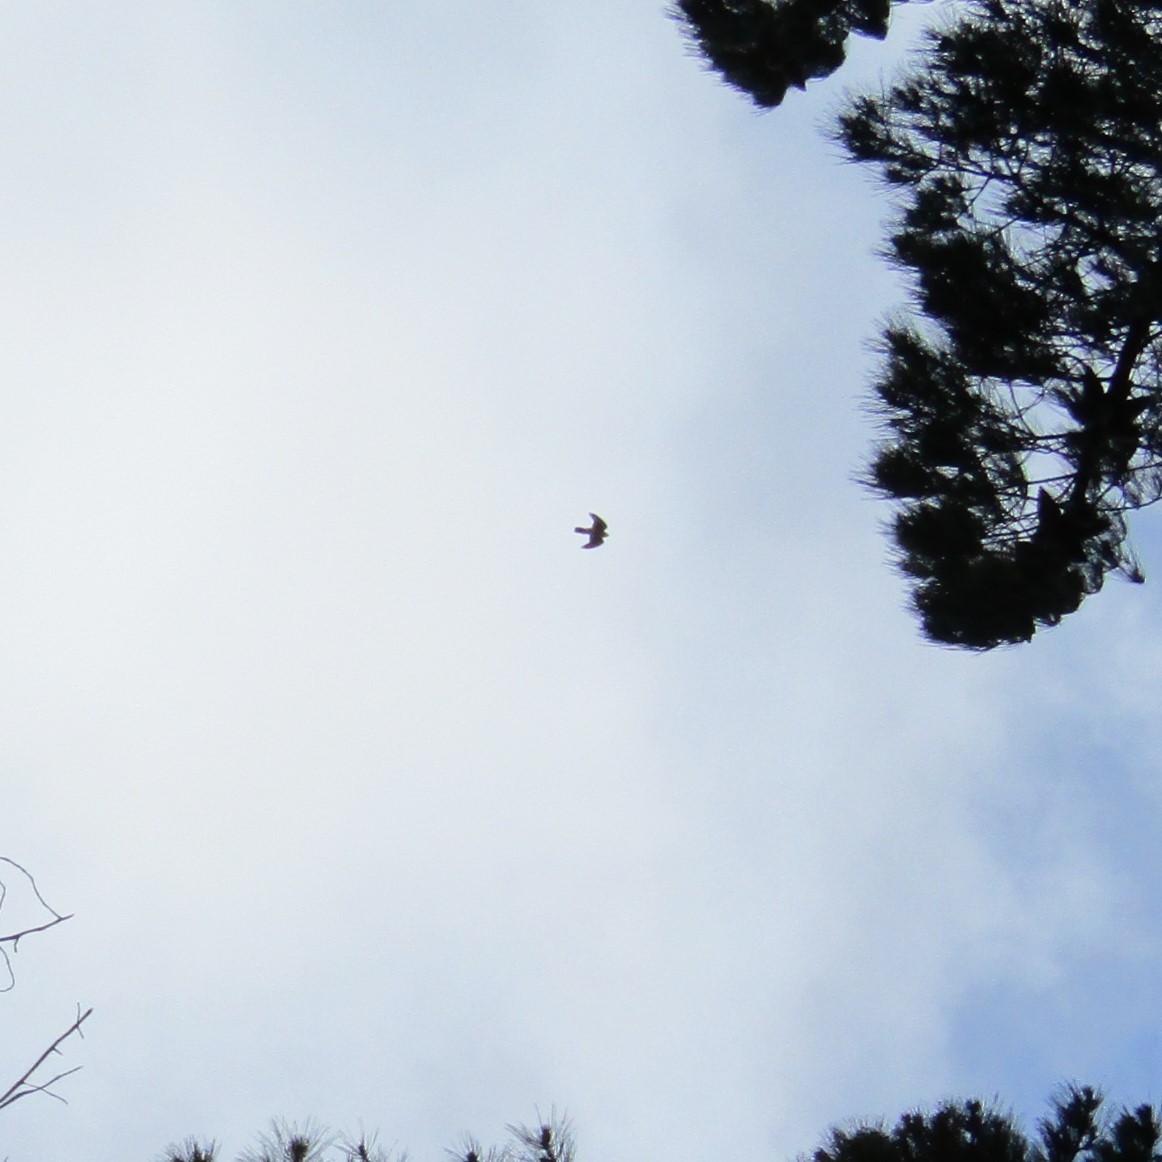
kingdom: Animalia
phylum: Chordata
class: Aves
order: Falconiformes
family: Falconidae
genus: Falco
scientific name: Falco novaeseelandiae
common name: New zealand falcon
